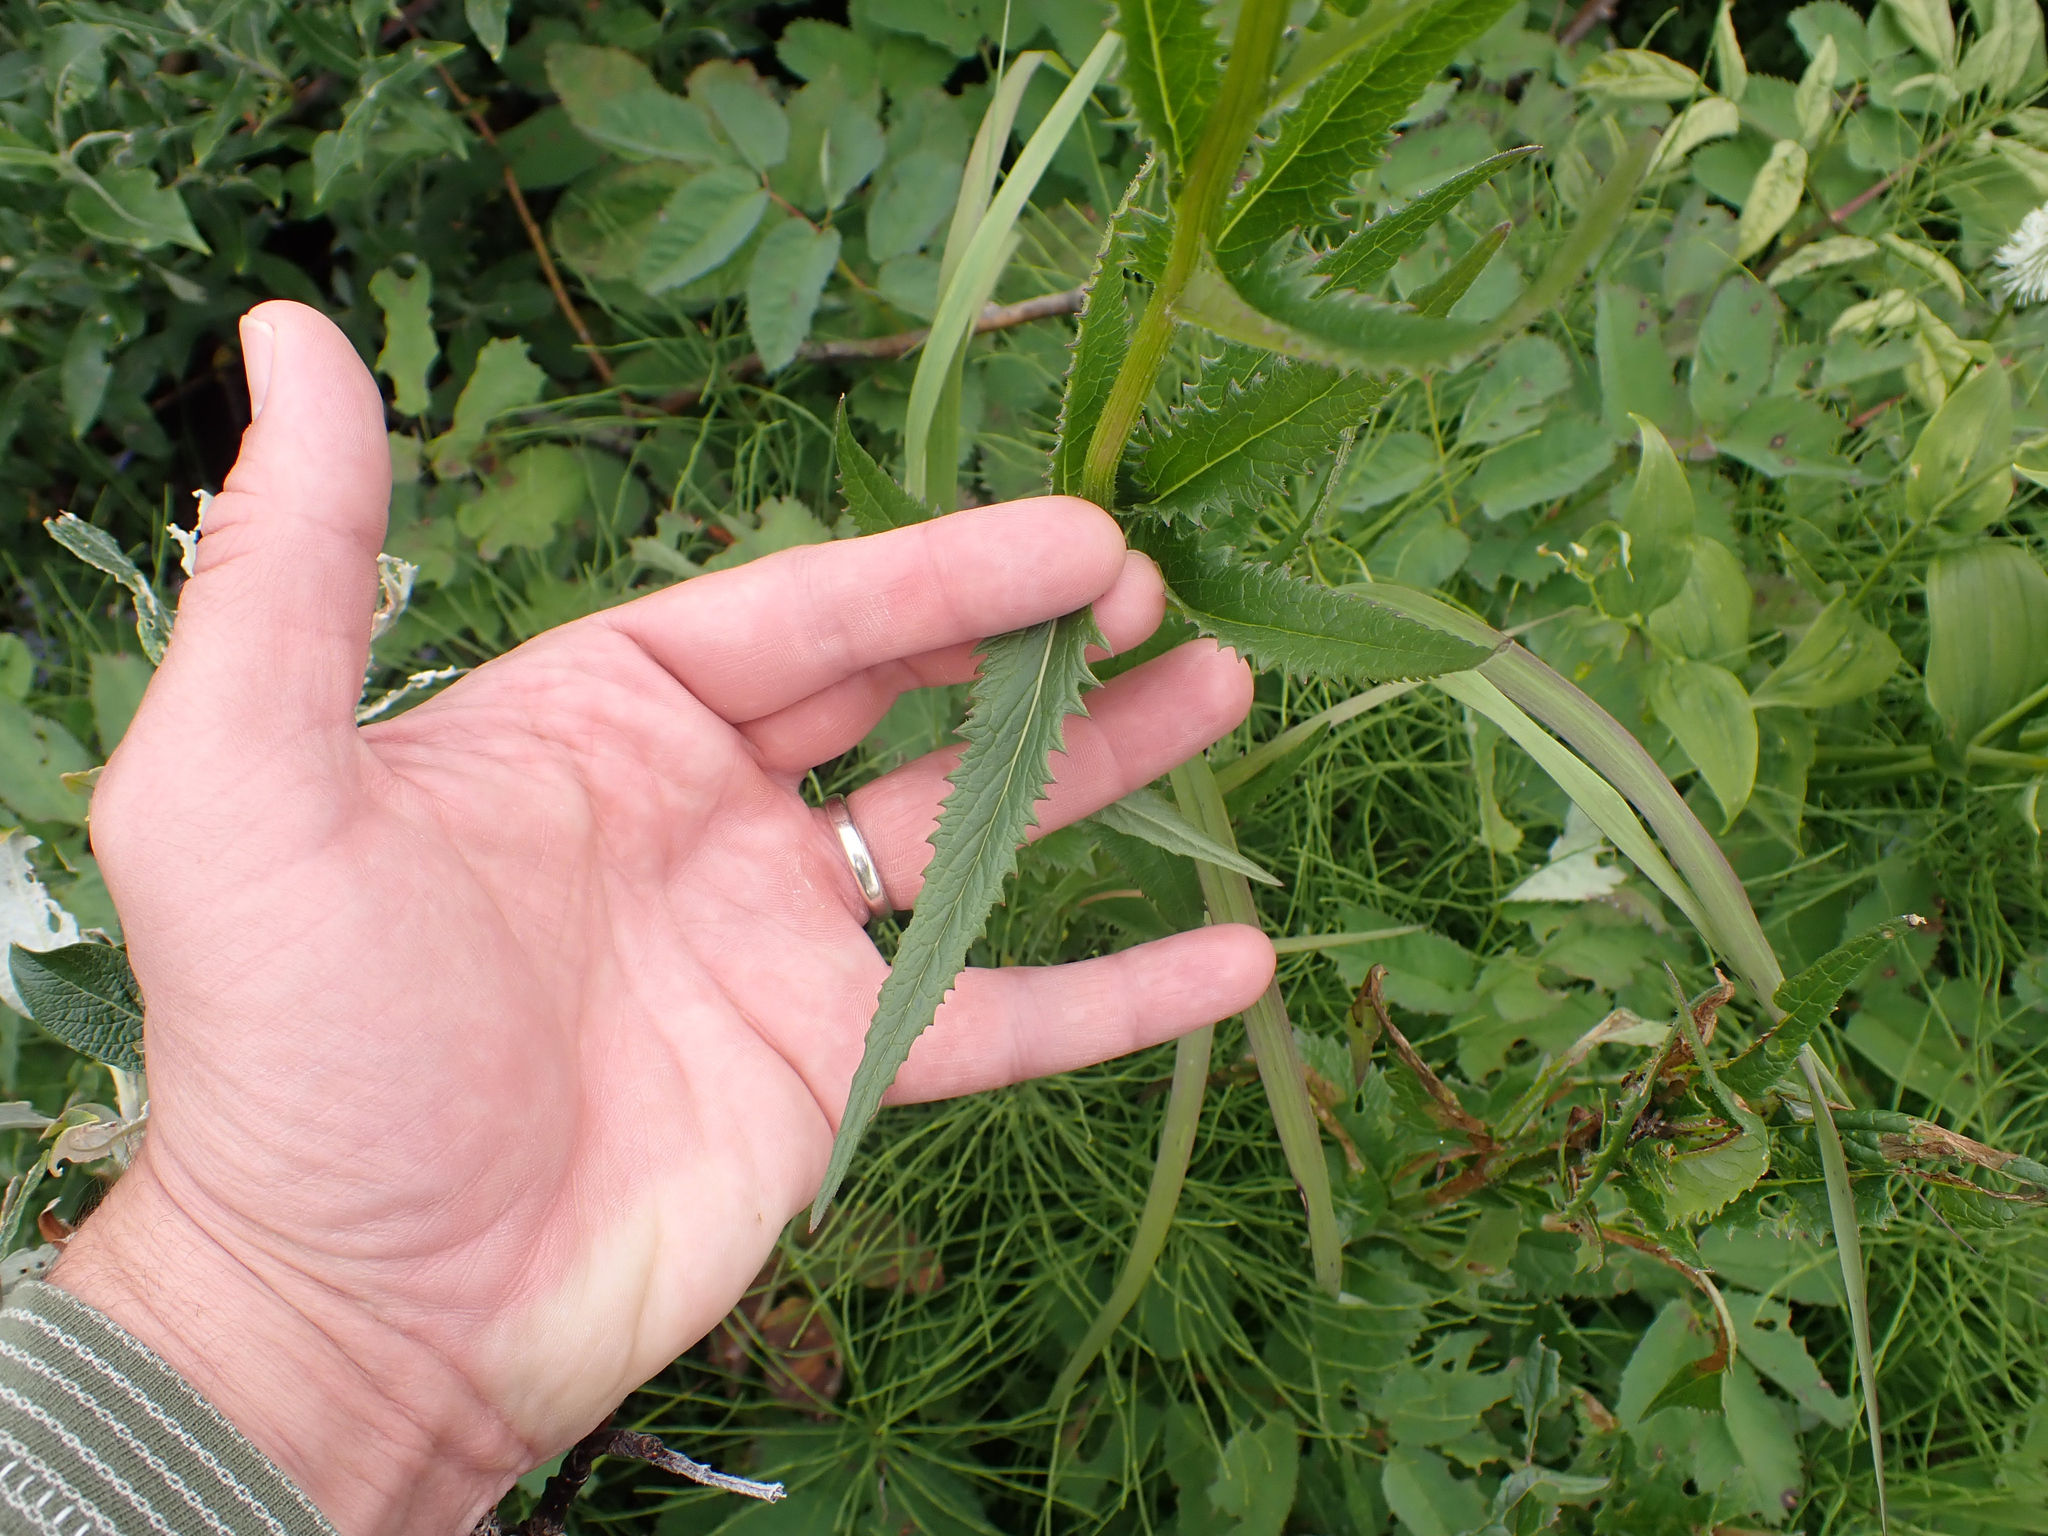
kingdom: Plantae
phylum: Tracheophyta
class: Magnoliopsida
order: Asterales
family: Asteraceae
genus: Senecio
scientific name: Senecio triangularis
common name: Arrowleaf butterweed
